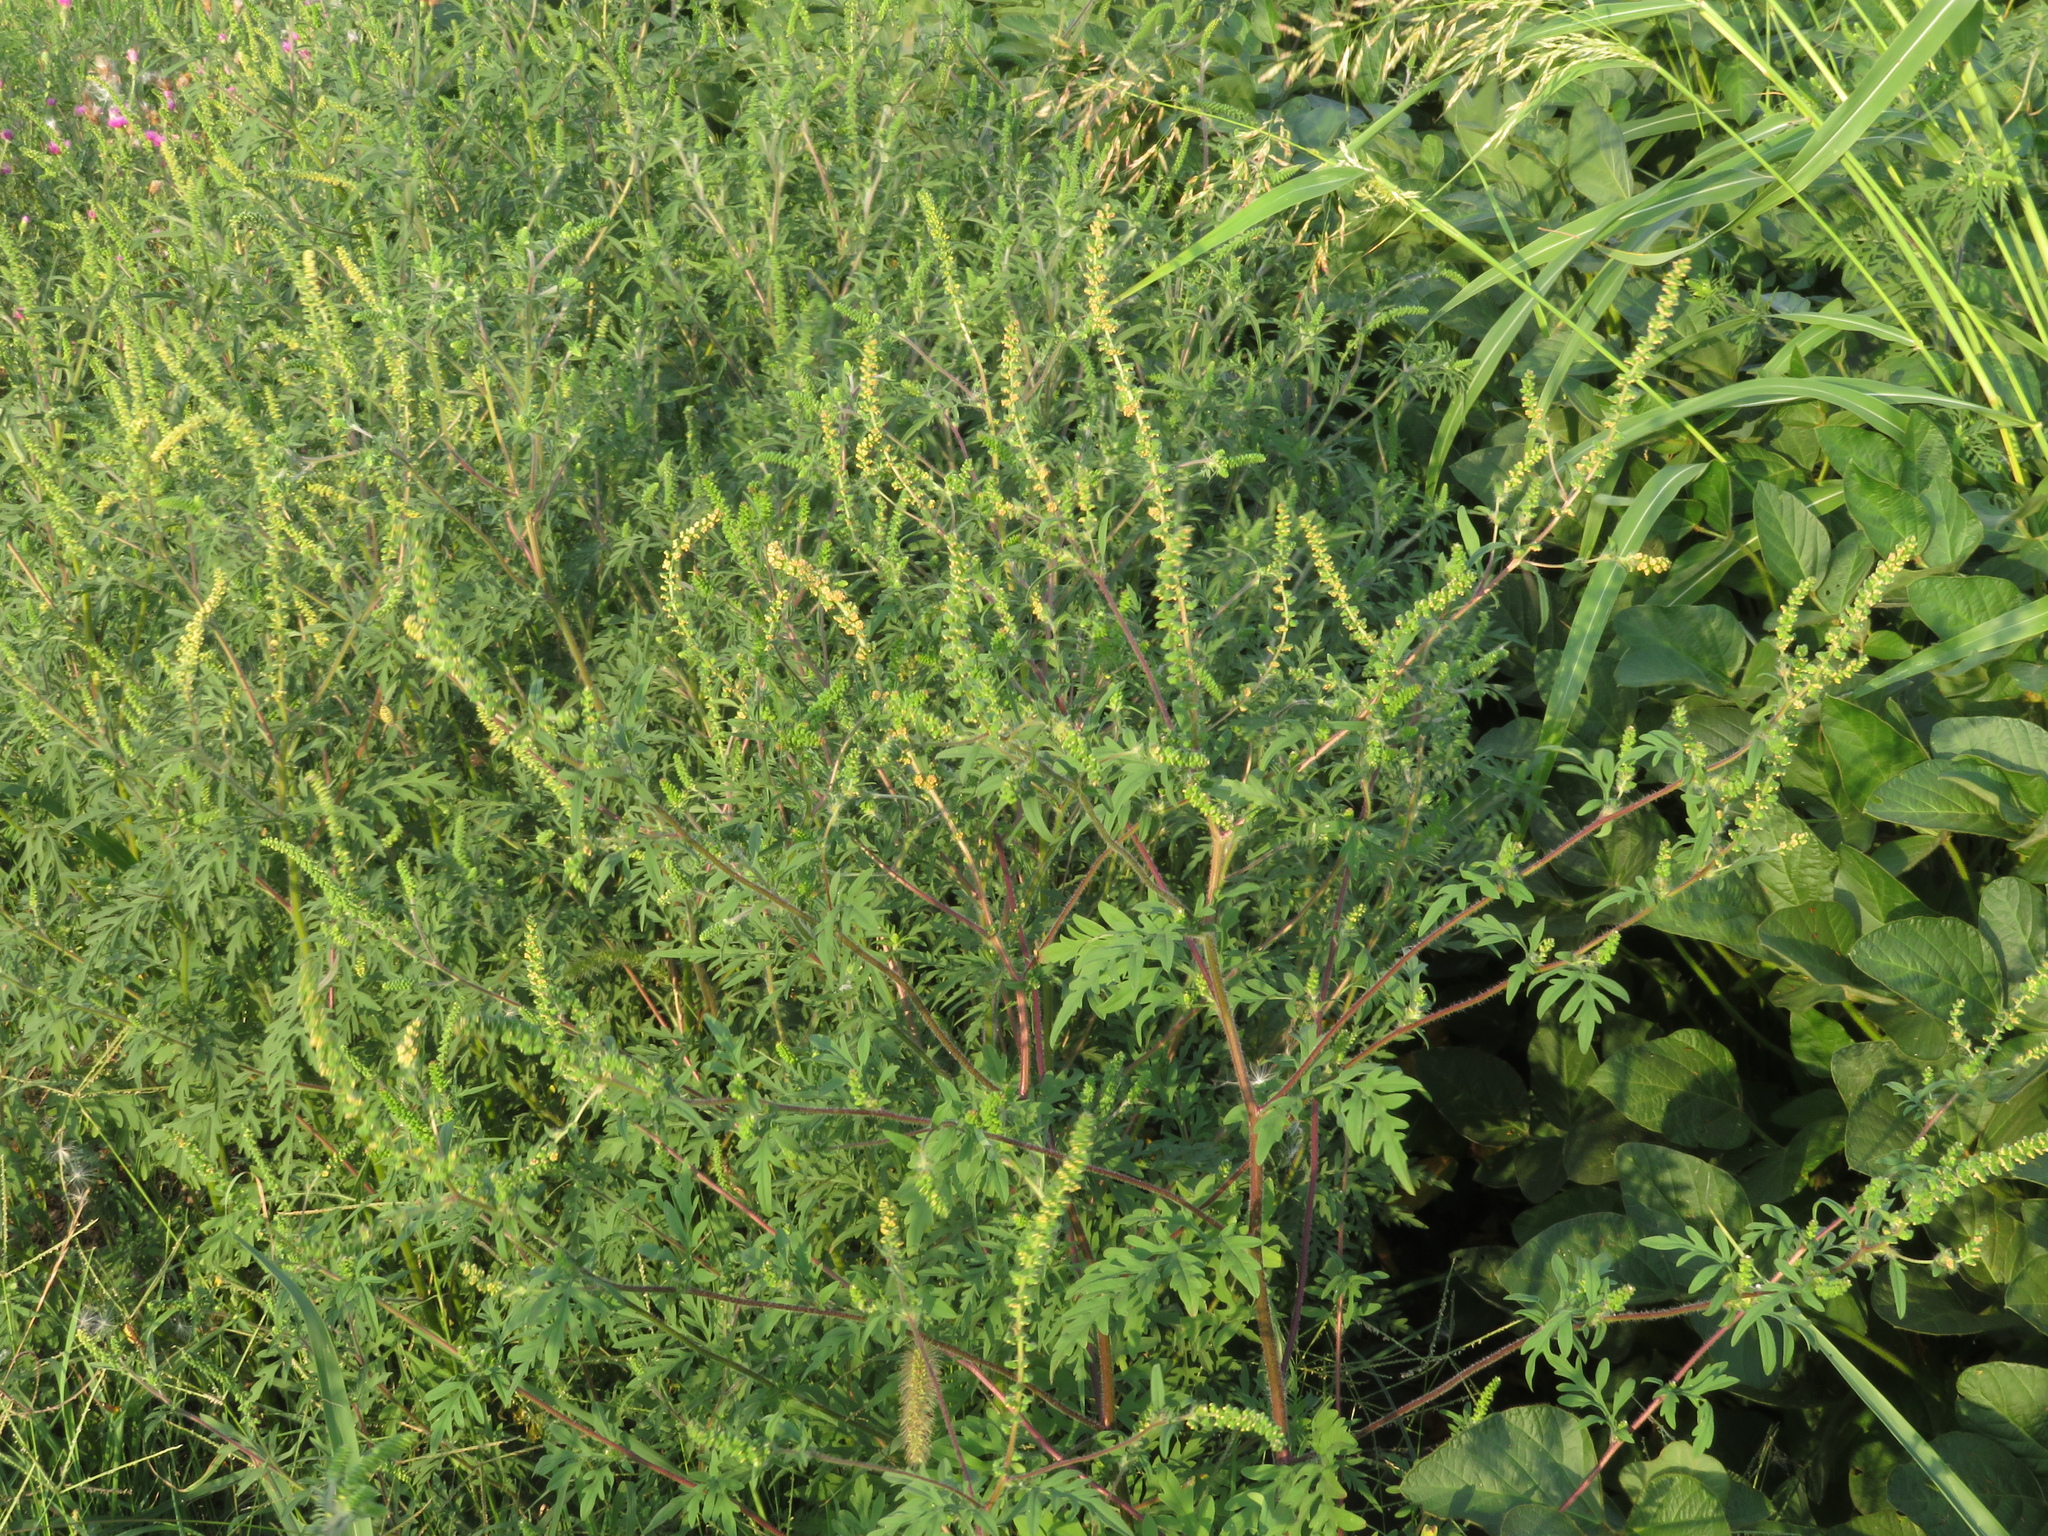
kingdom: Plantae
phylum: Tracheophyta
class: Magnoliopsida
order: Asterales
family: Asteraceae
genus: Ambrosia
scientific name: Ambrosia artemisiifolia
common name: Annual ragweed
